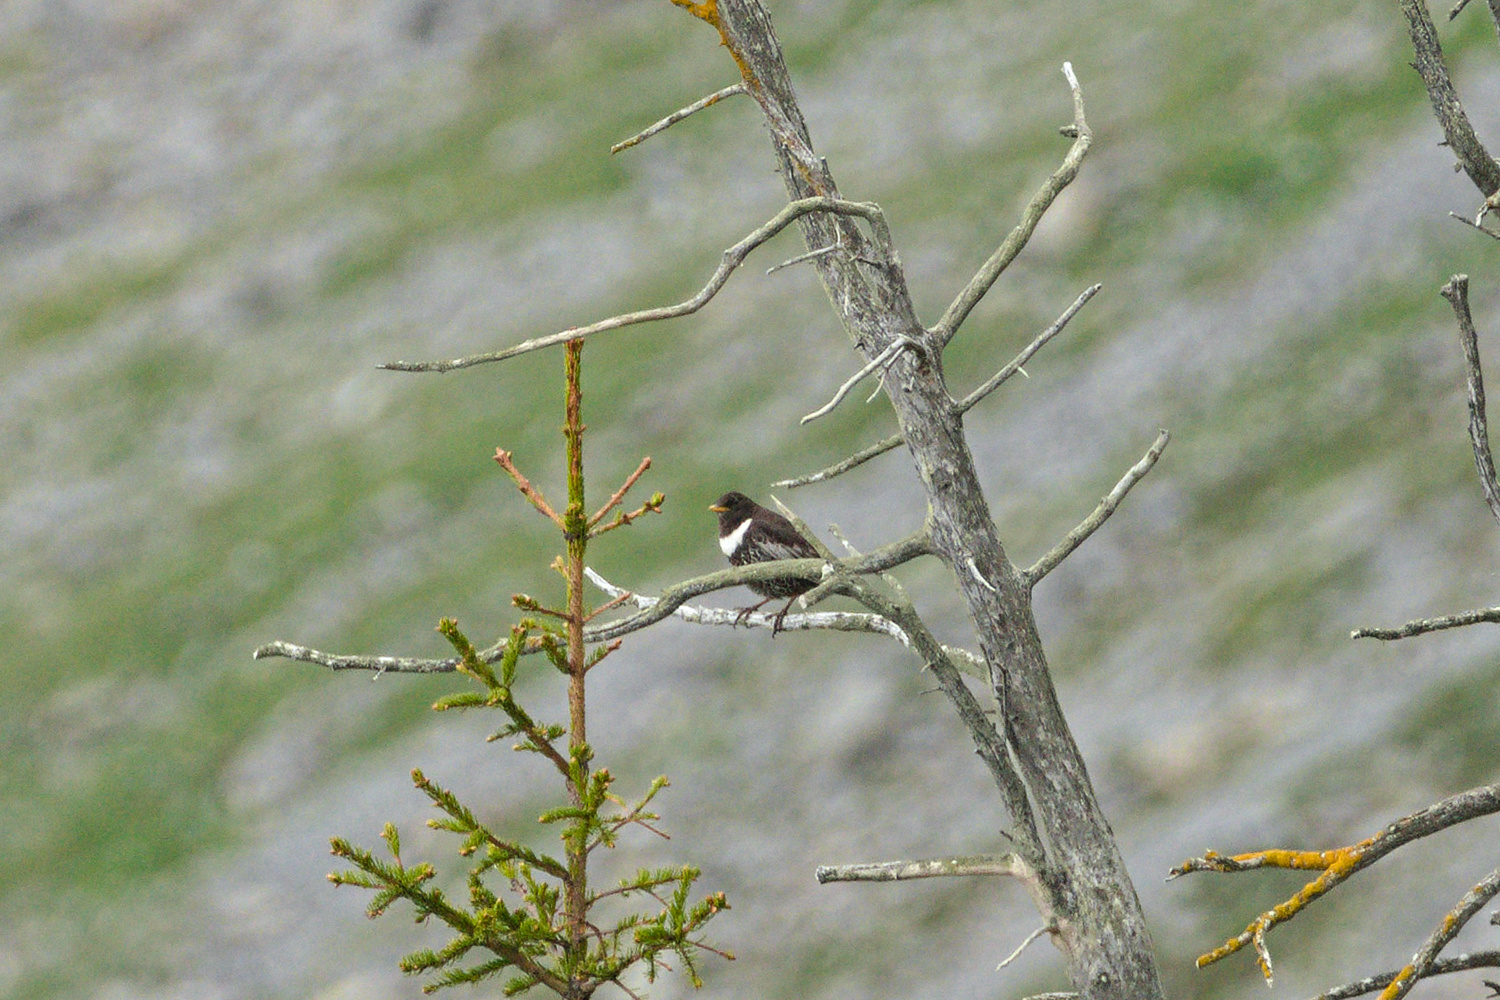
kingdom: Animalia
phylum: Chordata
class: Aves
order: Passeriformes
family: Turdidae
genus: Turdus
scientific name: Turdus torquatus
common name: Ring ouzel
